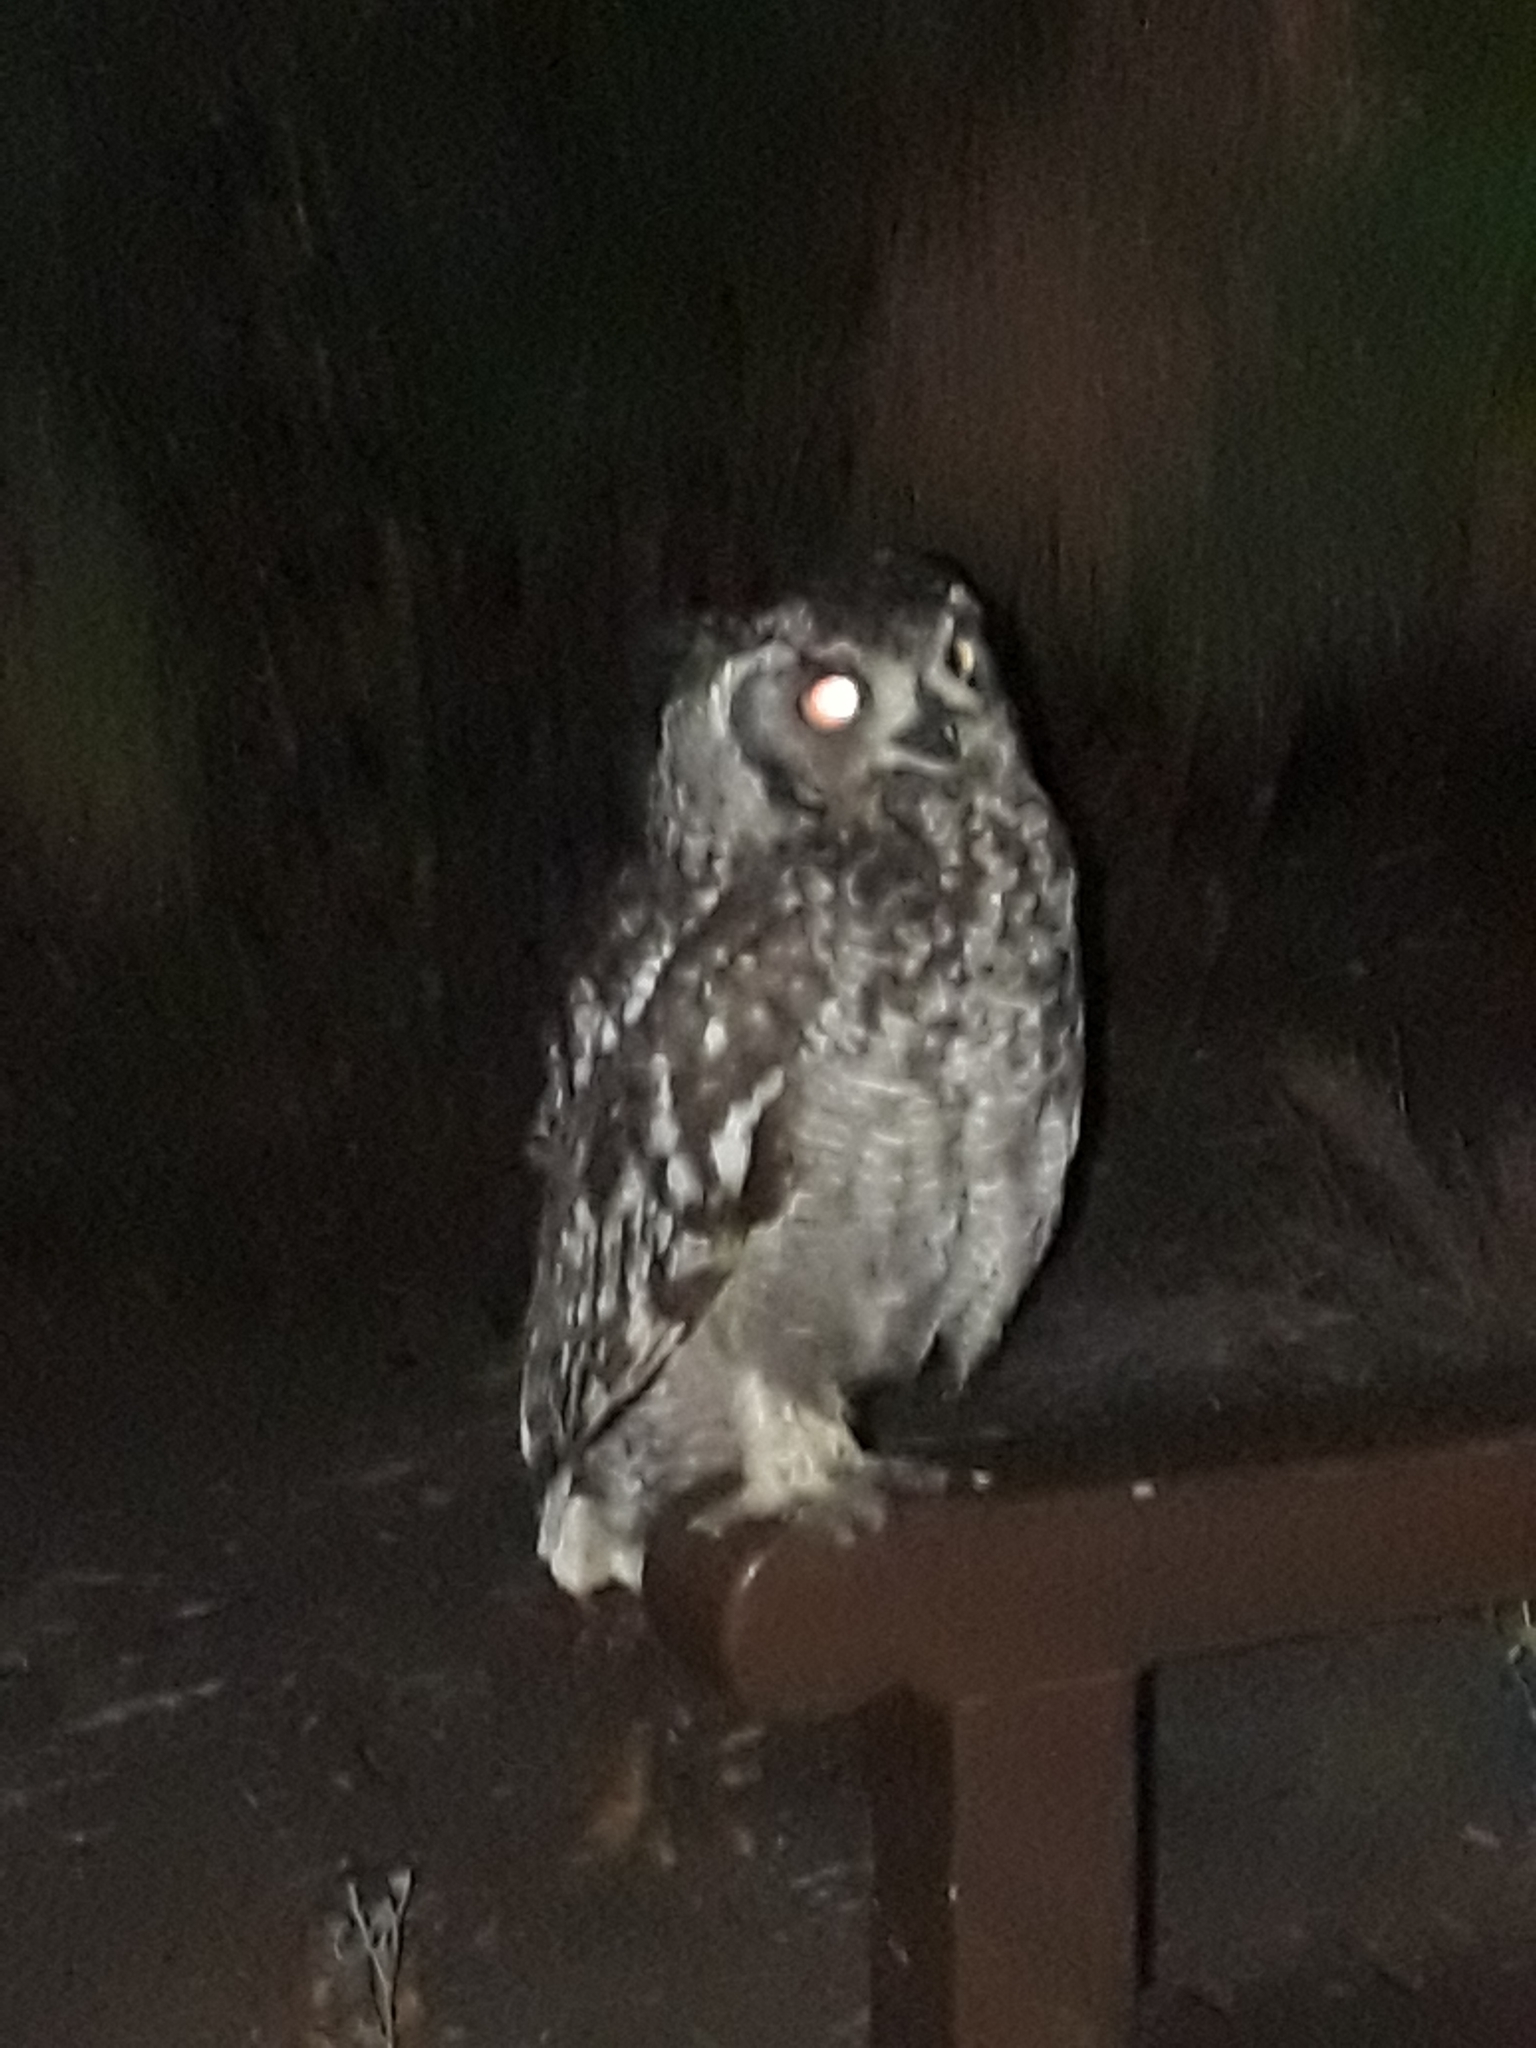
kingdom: Animalia
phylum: Chordata
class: Aves
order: Strigiformes
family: Strigidae
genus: Bubo
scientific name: Bubo africanus
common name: Spotted eagle-owl
